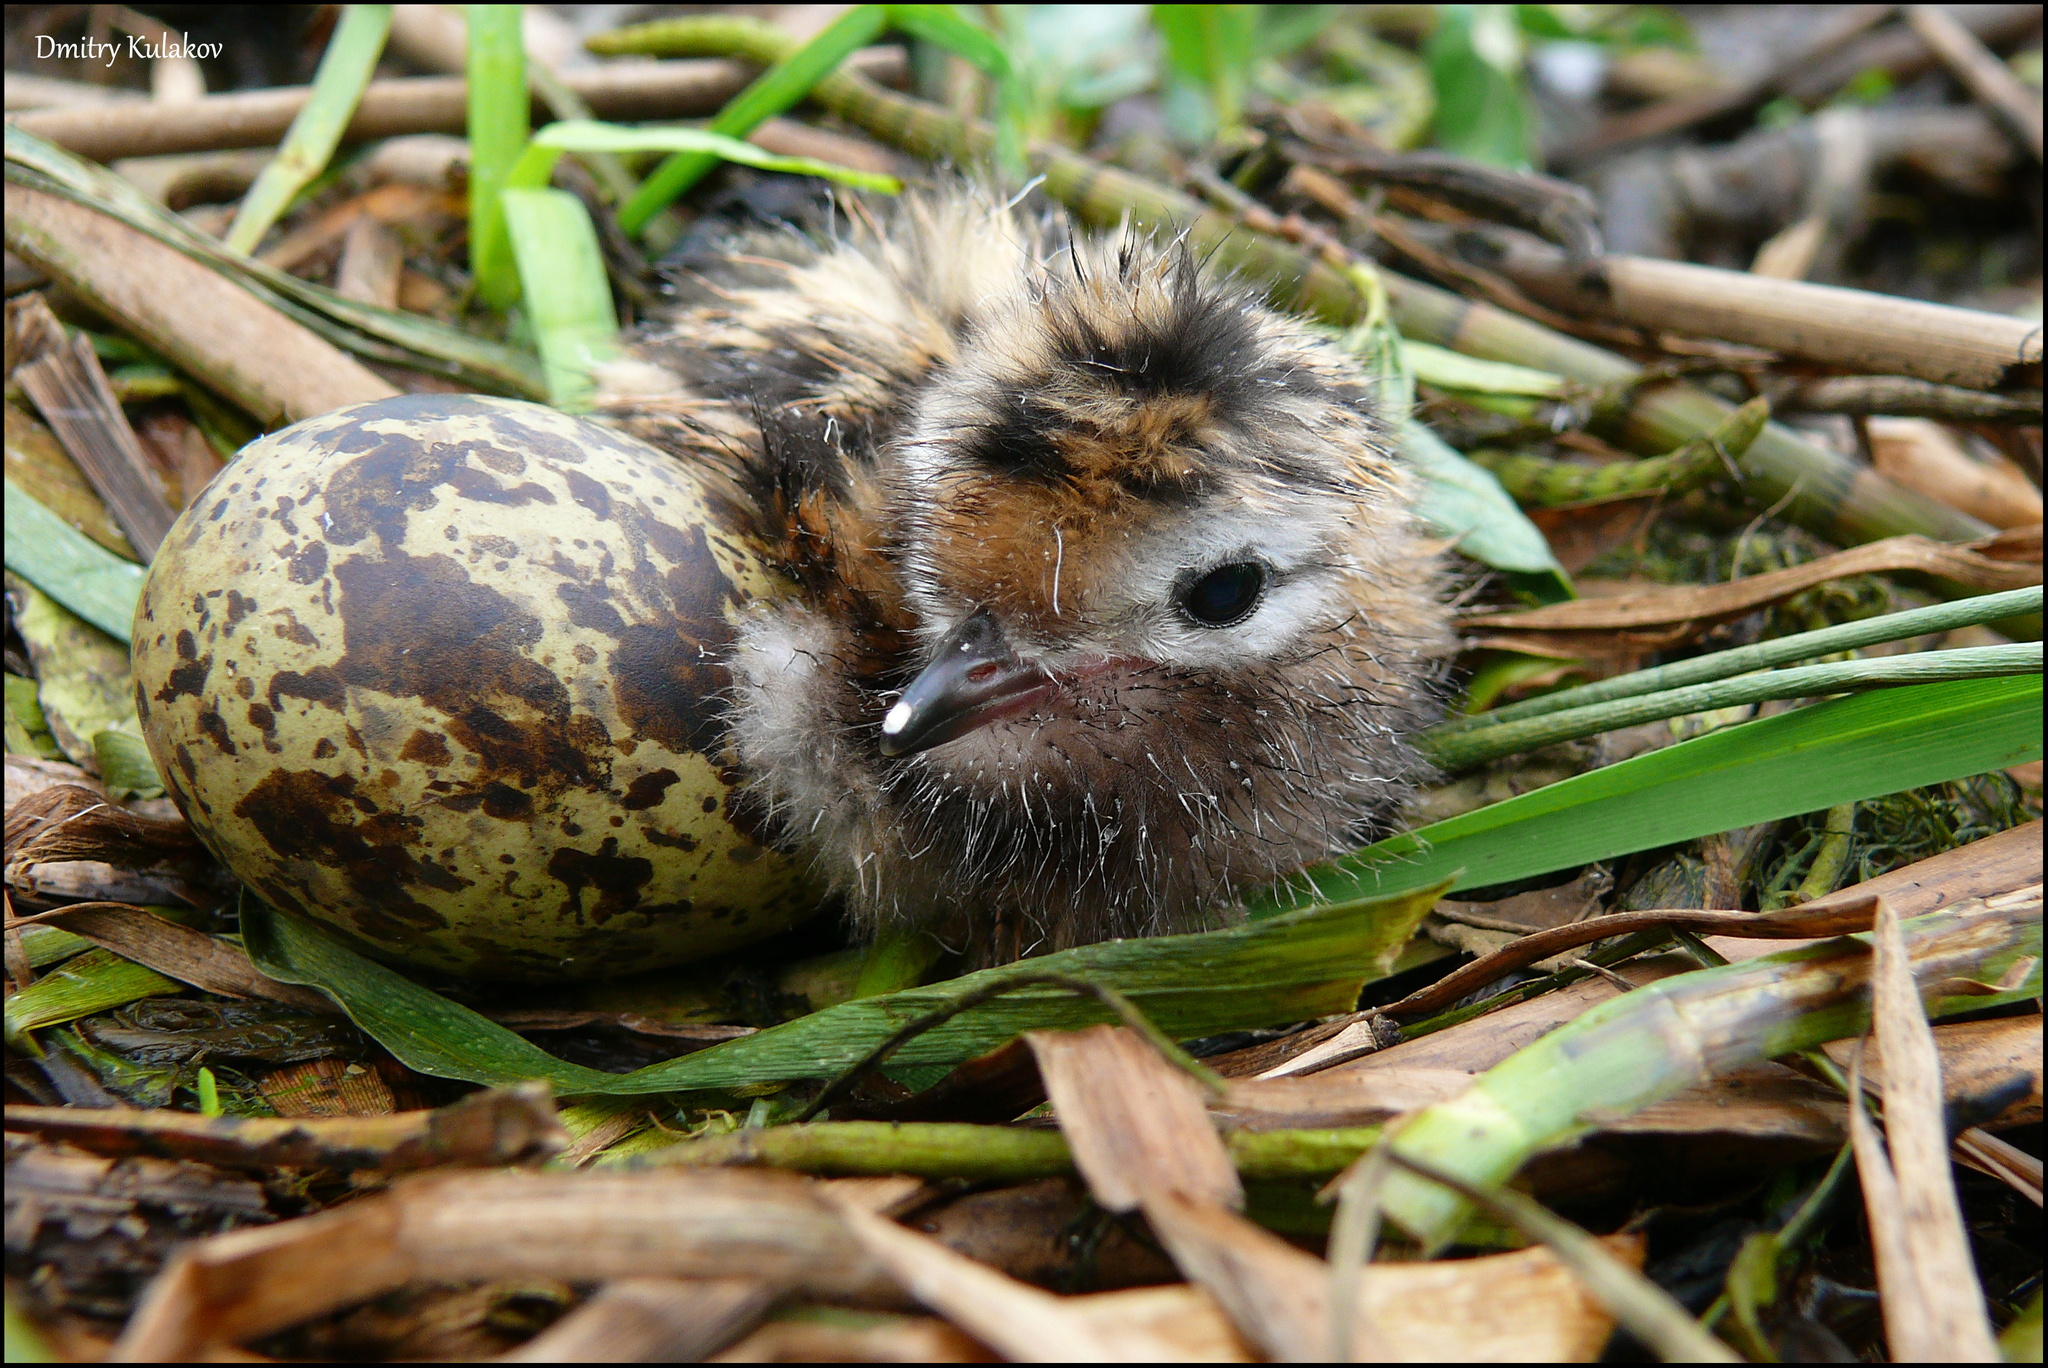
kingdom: Animalia
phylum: Chordata
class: Aves
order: Charadriiformes
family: Laridae
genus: Chlidonias
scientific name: Chlidonias niger
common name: Black tern
